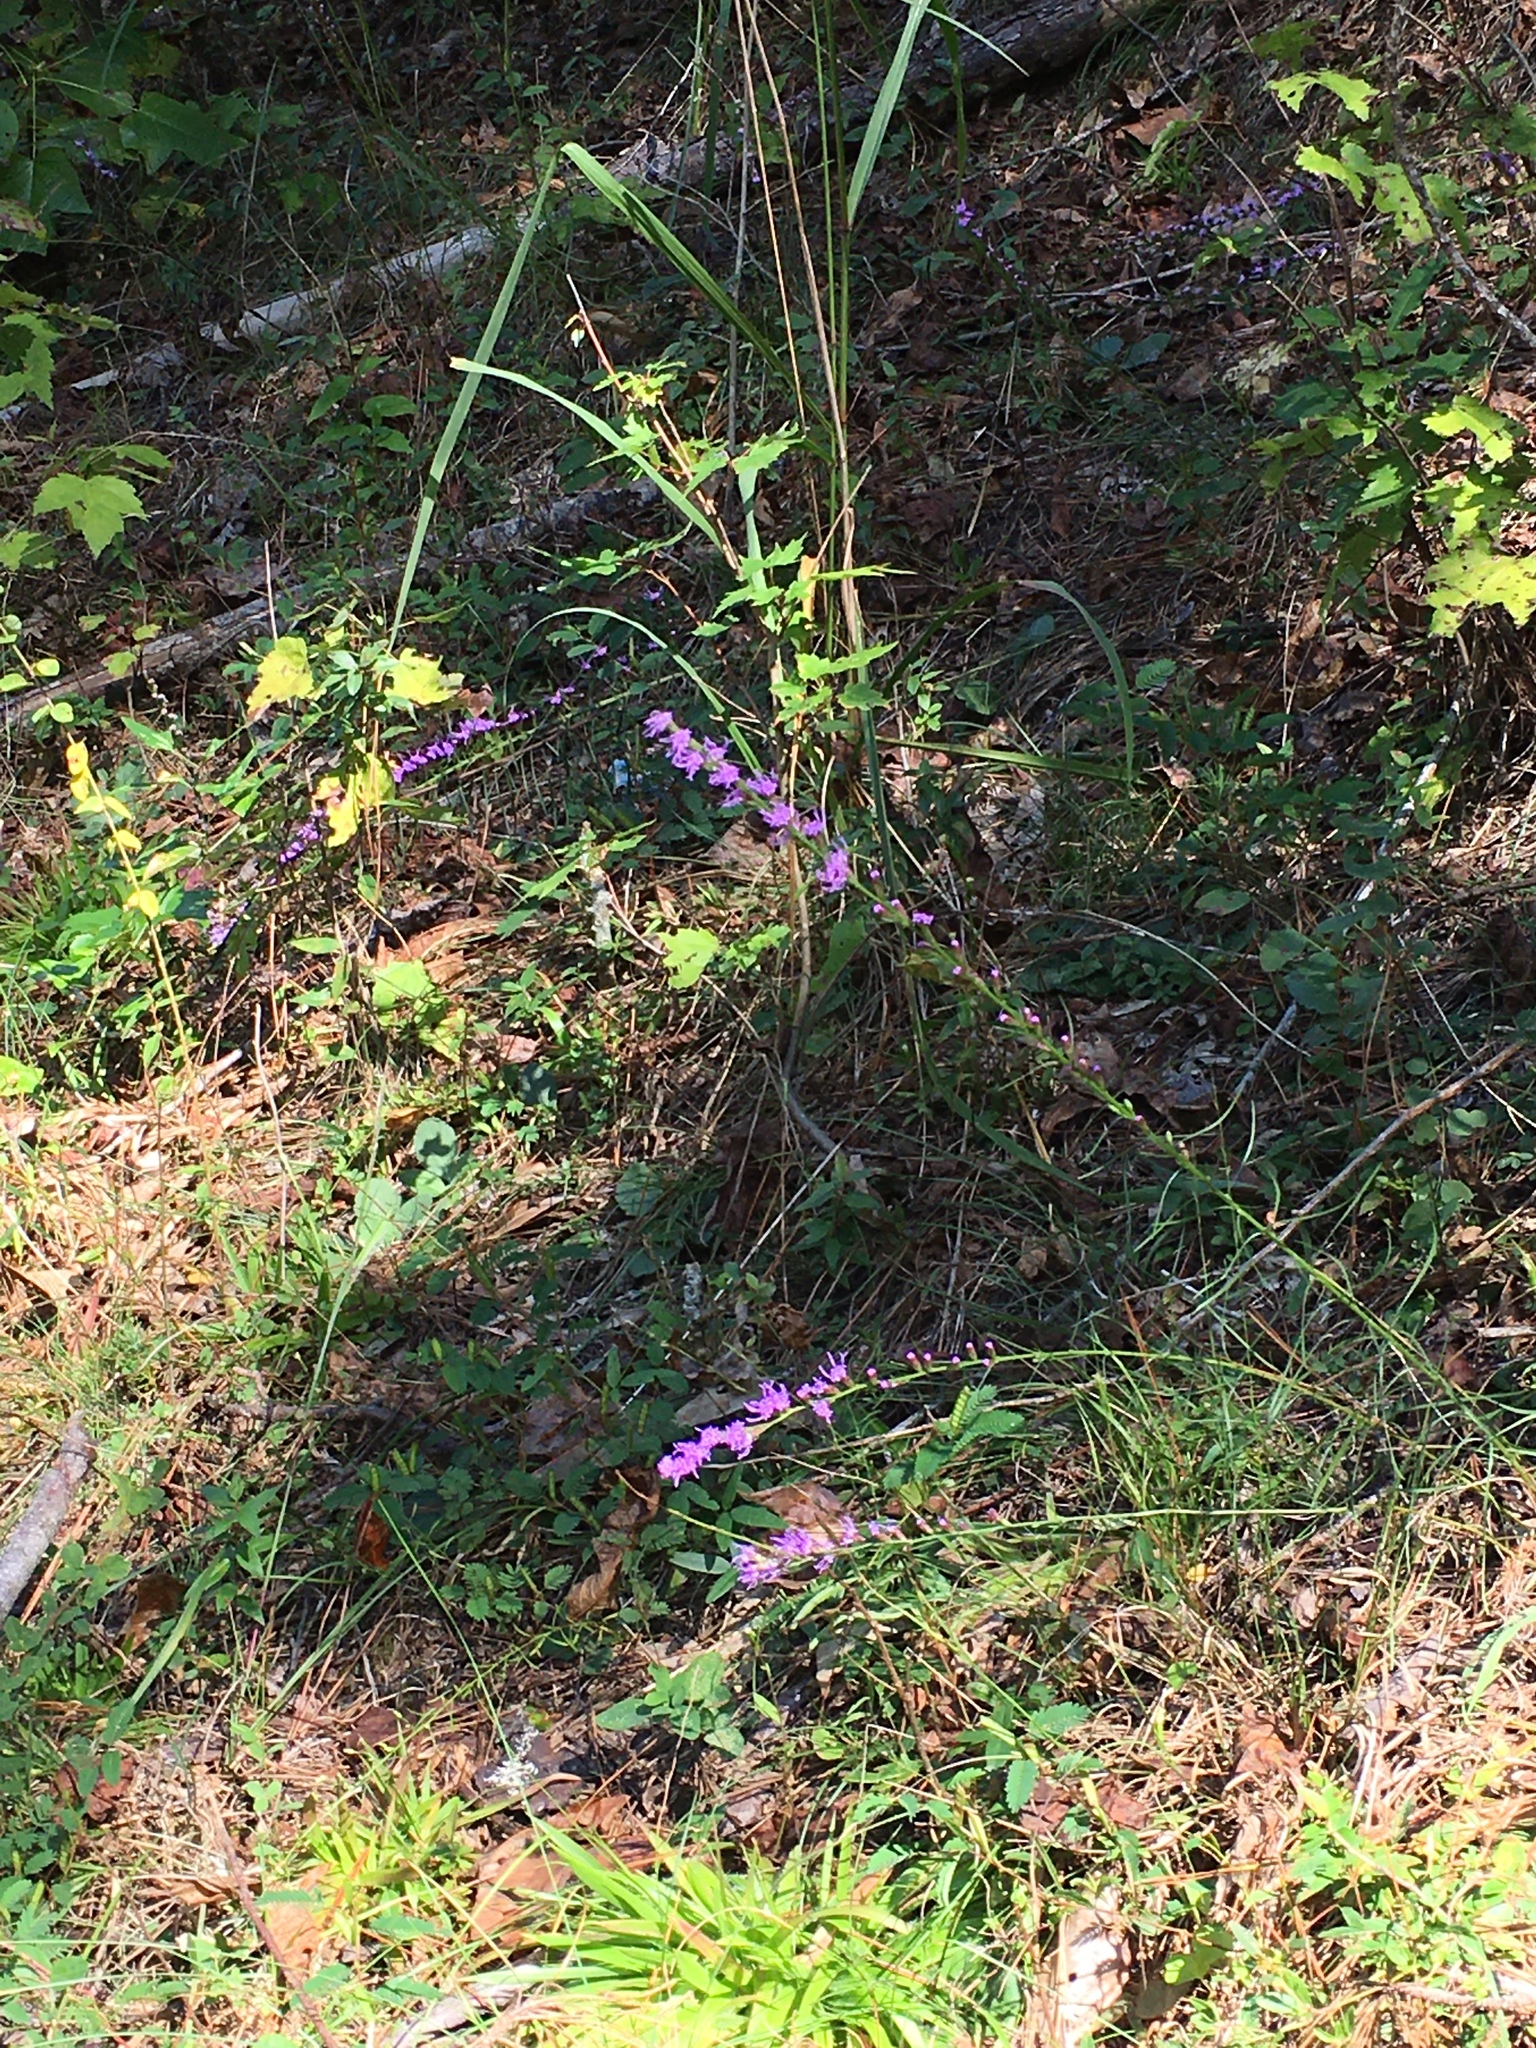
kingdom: Plantae
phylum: Tracheophyta
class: Magnoliopsida
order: Asterales
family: Asteraceae
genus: Liatris
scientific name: Liatris pilosa
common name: Grass-leaf gayfeather
